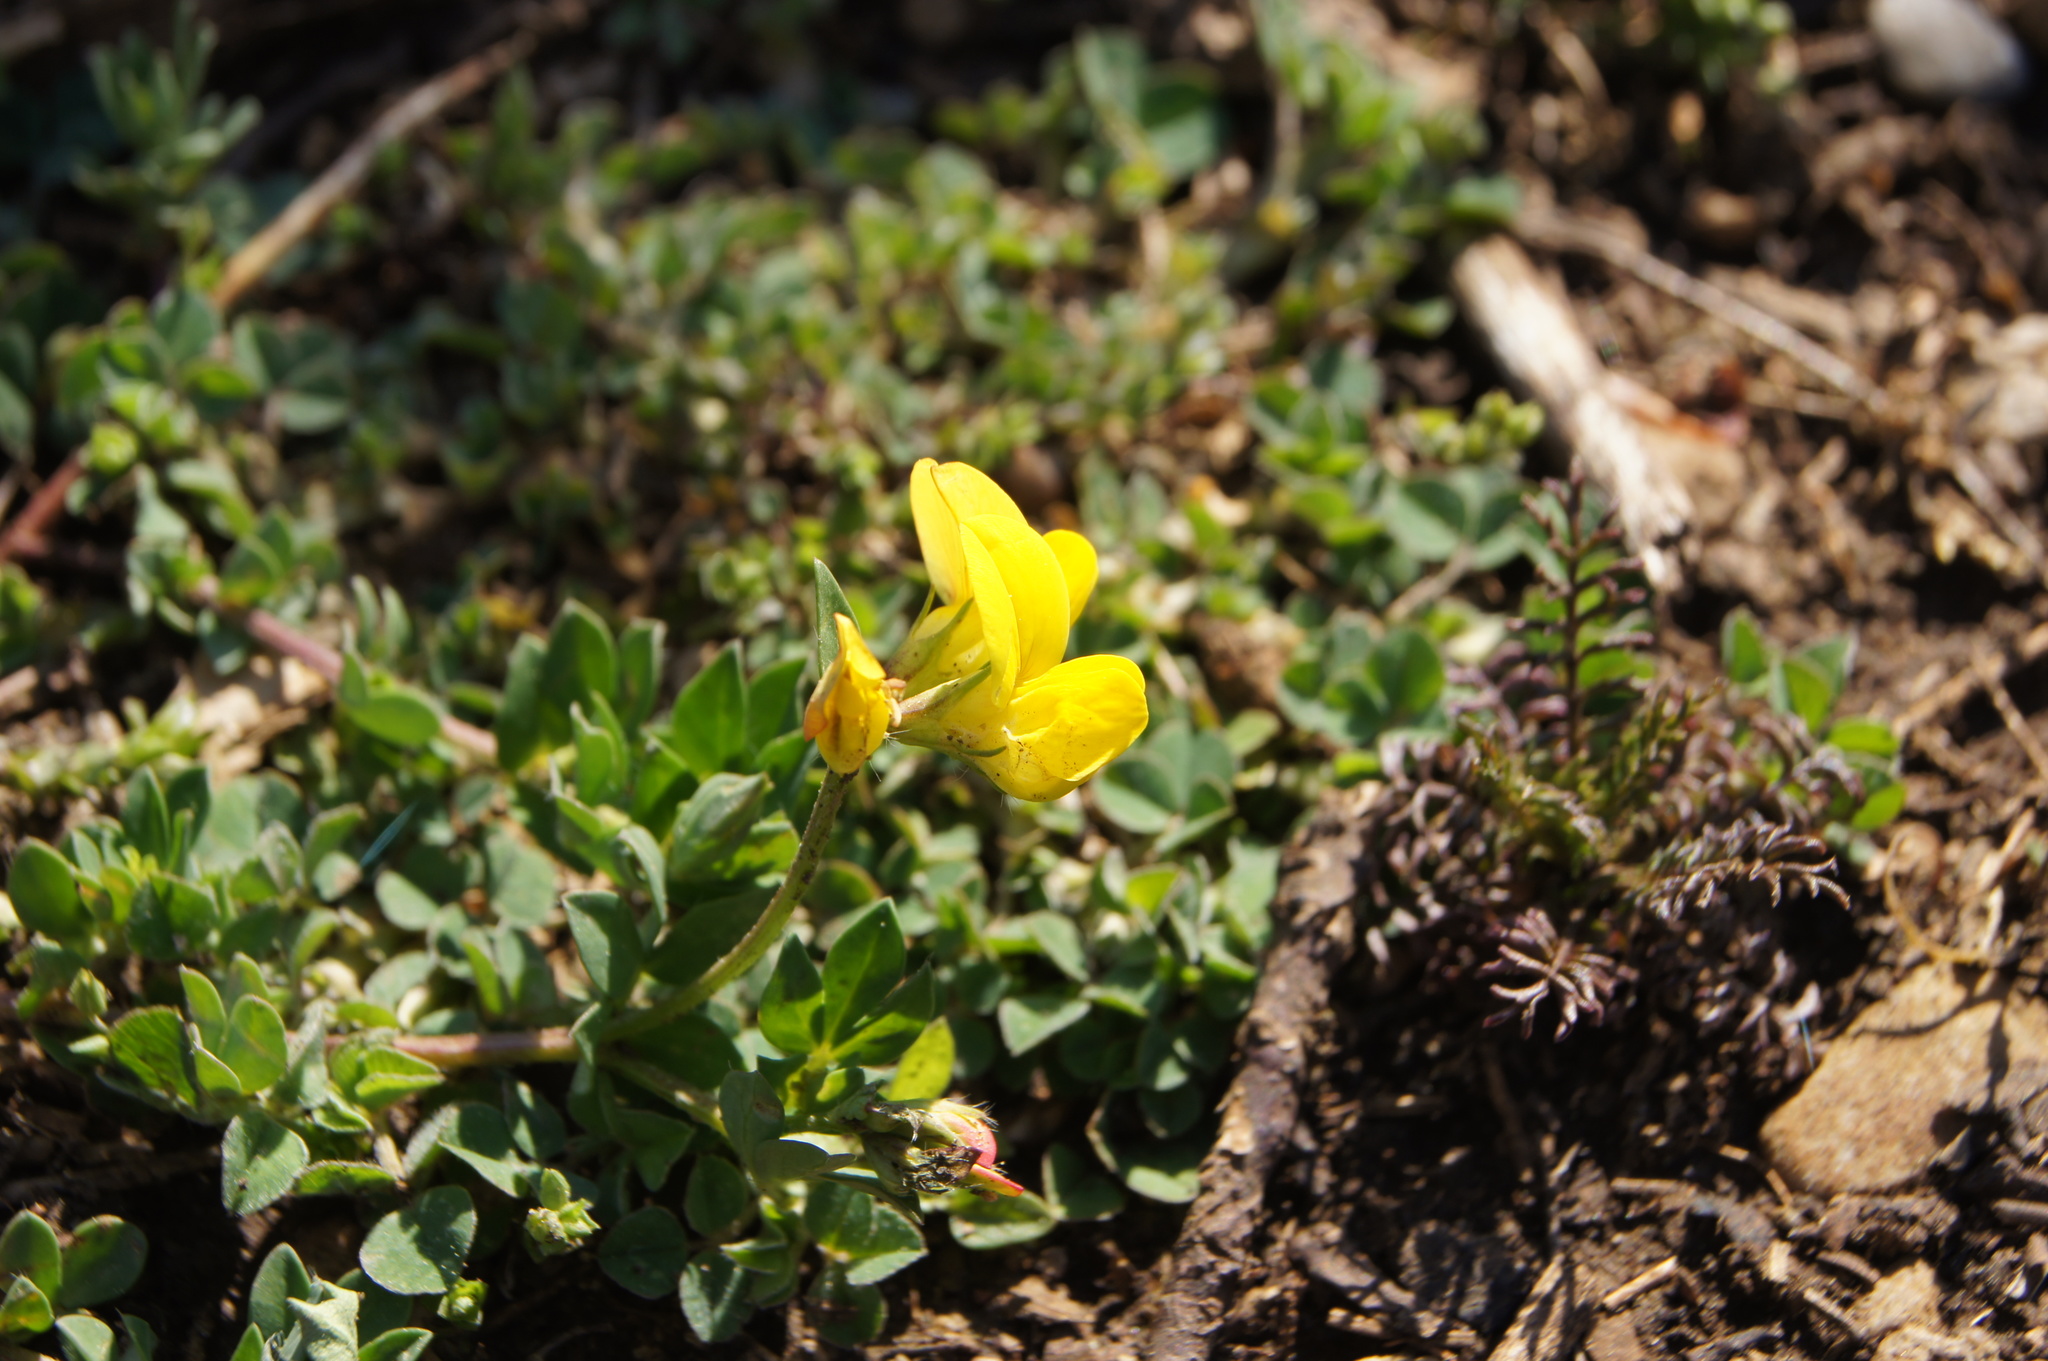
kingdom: Plantae
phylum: Tracheophyta
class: Magnoliopsida
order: Fabales
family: Fabaceae
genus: Lotus
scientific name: Lotus corniculatus
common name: Common bird's-foot-trefoil
